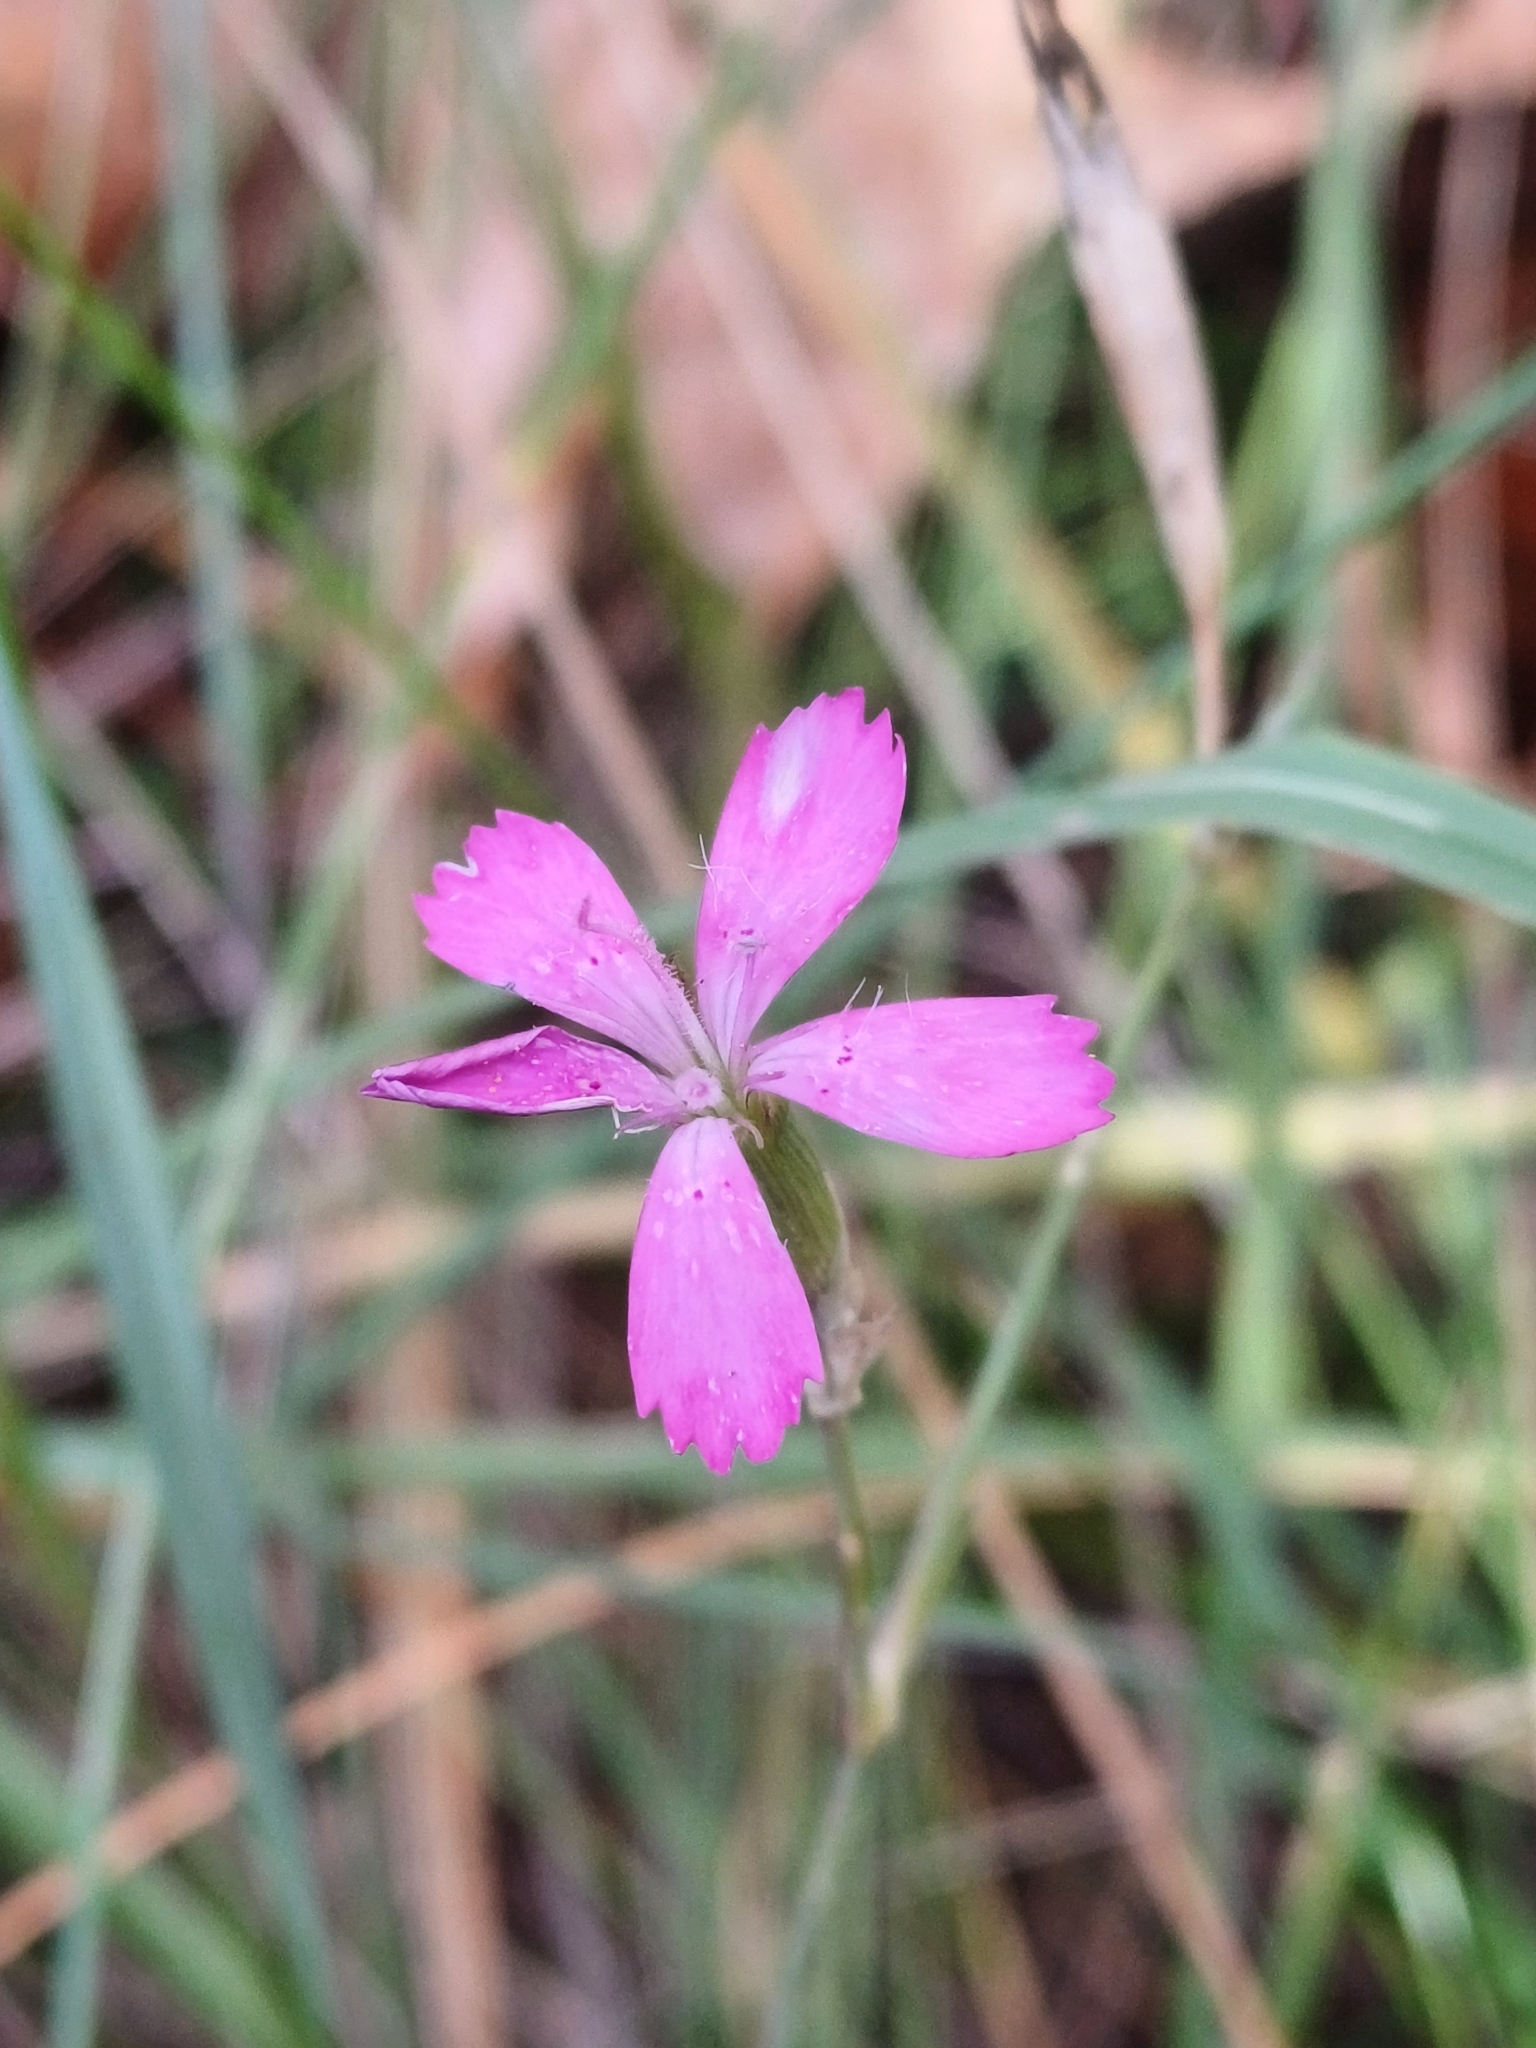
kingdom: Plantae
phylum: Tracheophyta
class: Magnoliopsida
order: Caryophyllales
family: Caryophyllaceae
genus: Dianthus
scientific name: Dianthus deltoides
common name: Maiden pink
